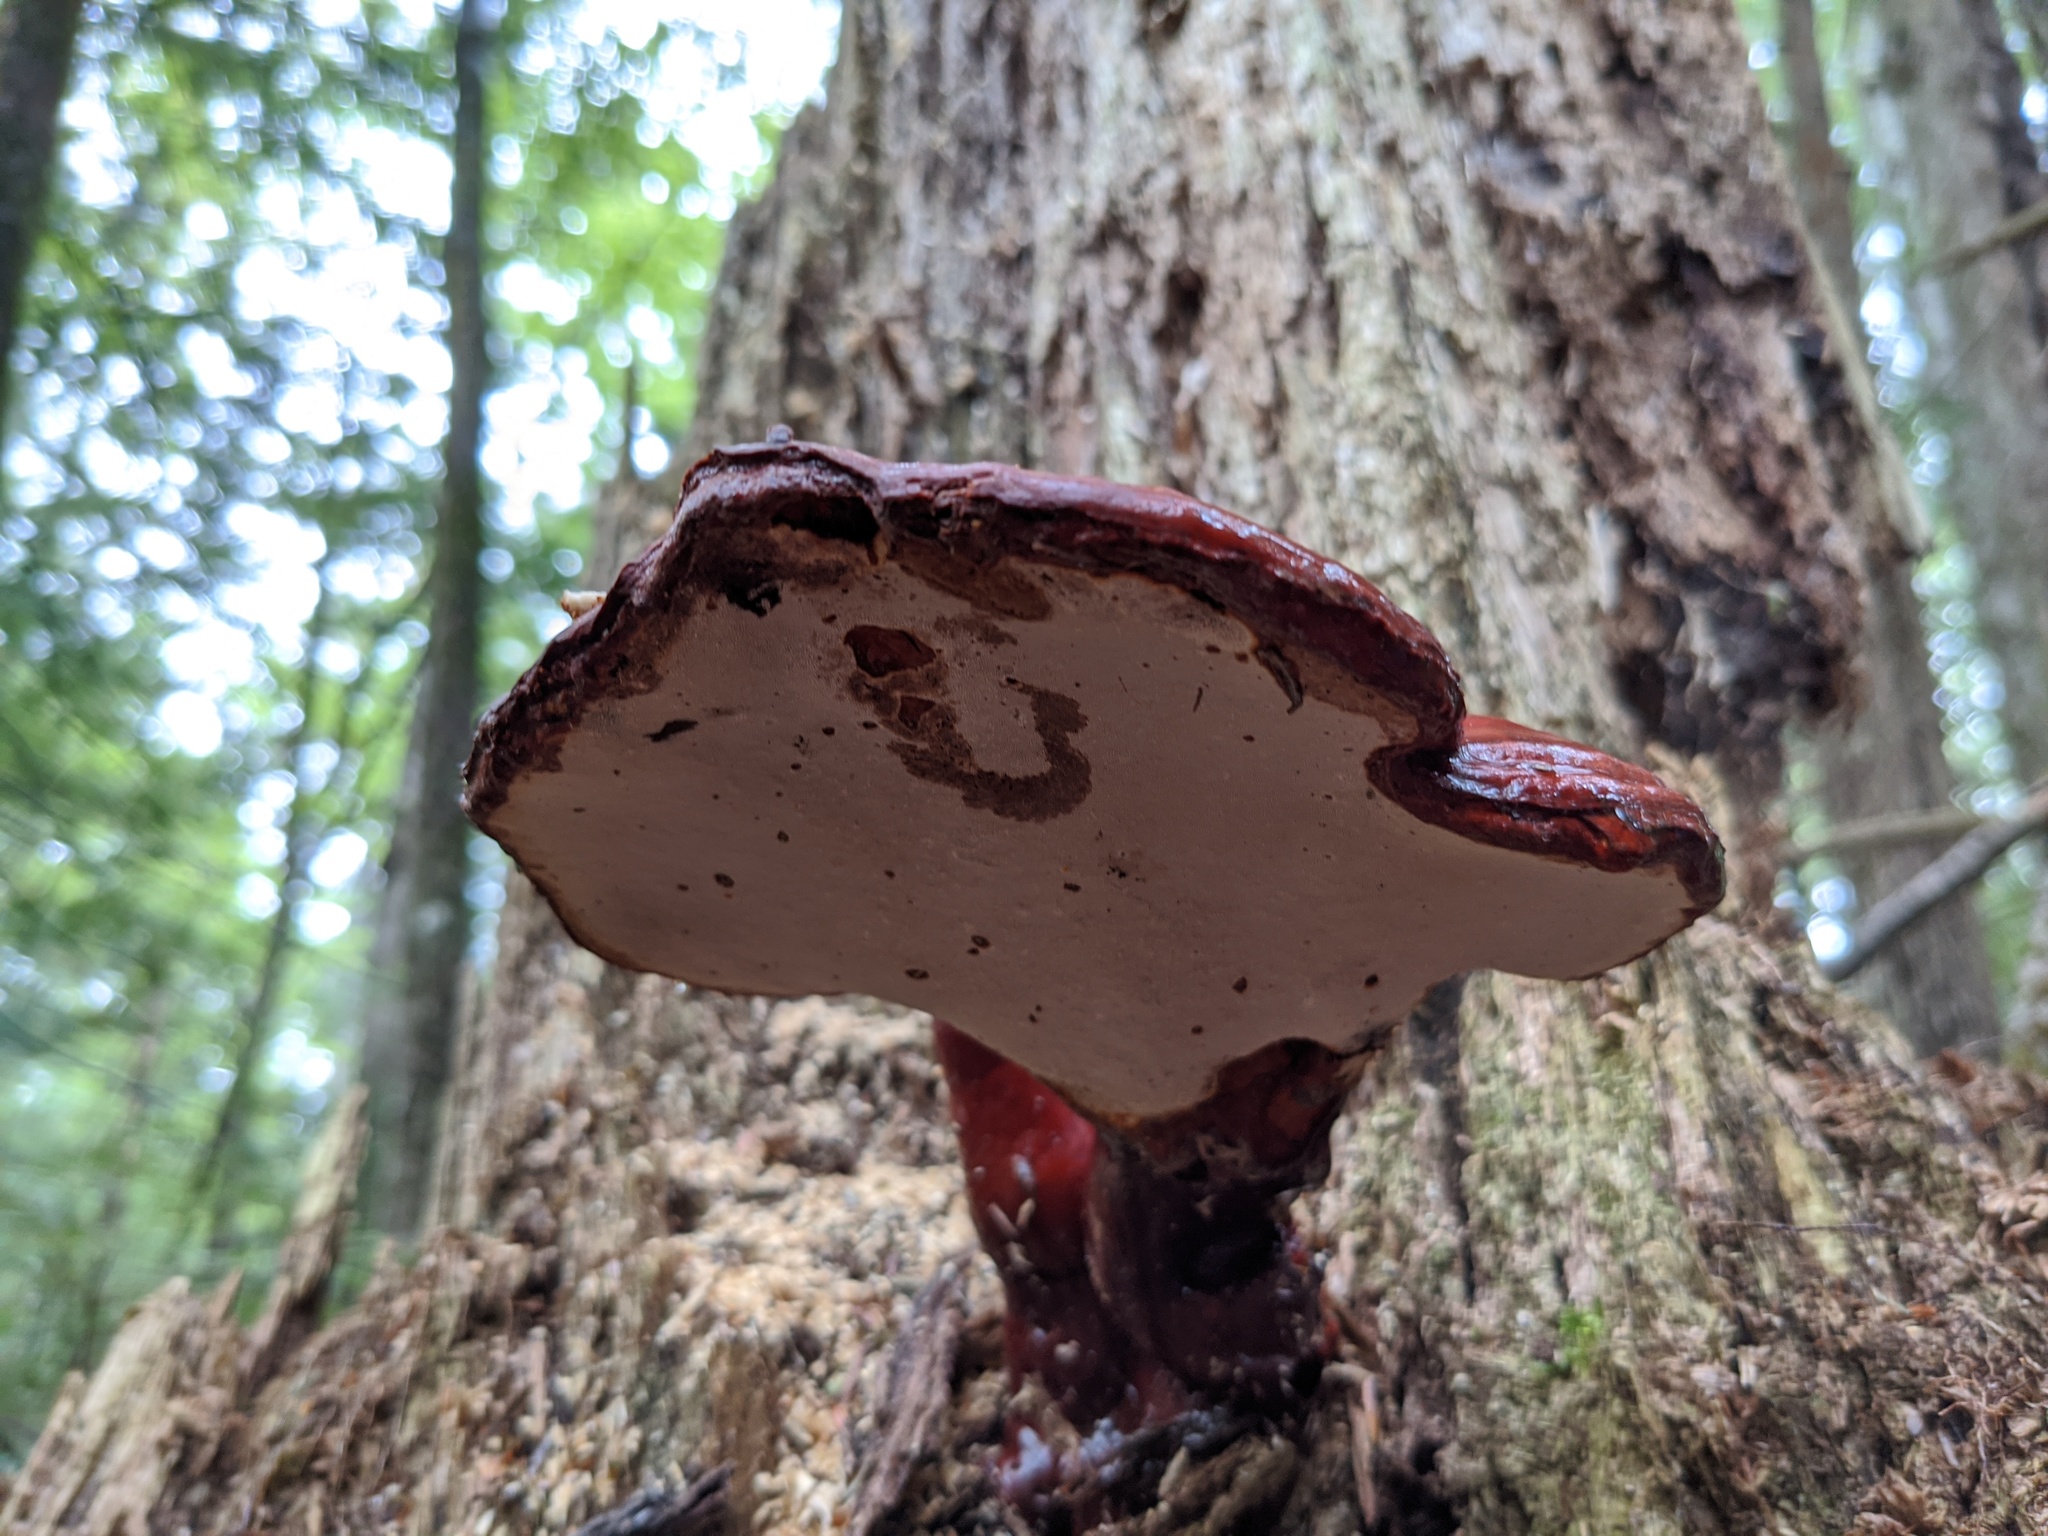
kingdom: Fungi
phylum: Basidiomycota
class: Agaricomycetes
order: Polyporales
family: Polyporaceae
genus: Ganoderma
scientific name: Ganoderma tsugae
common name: Hemlock varnish shelf
